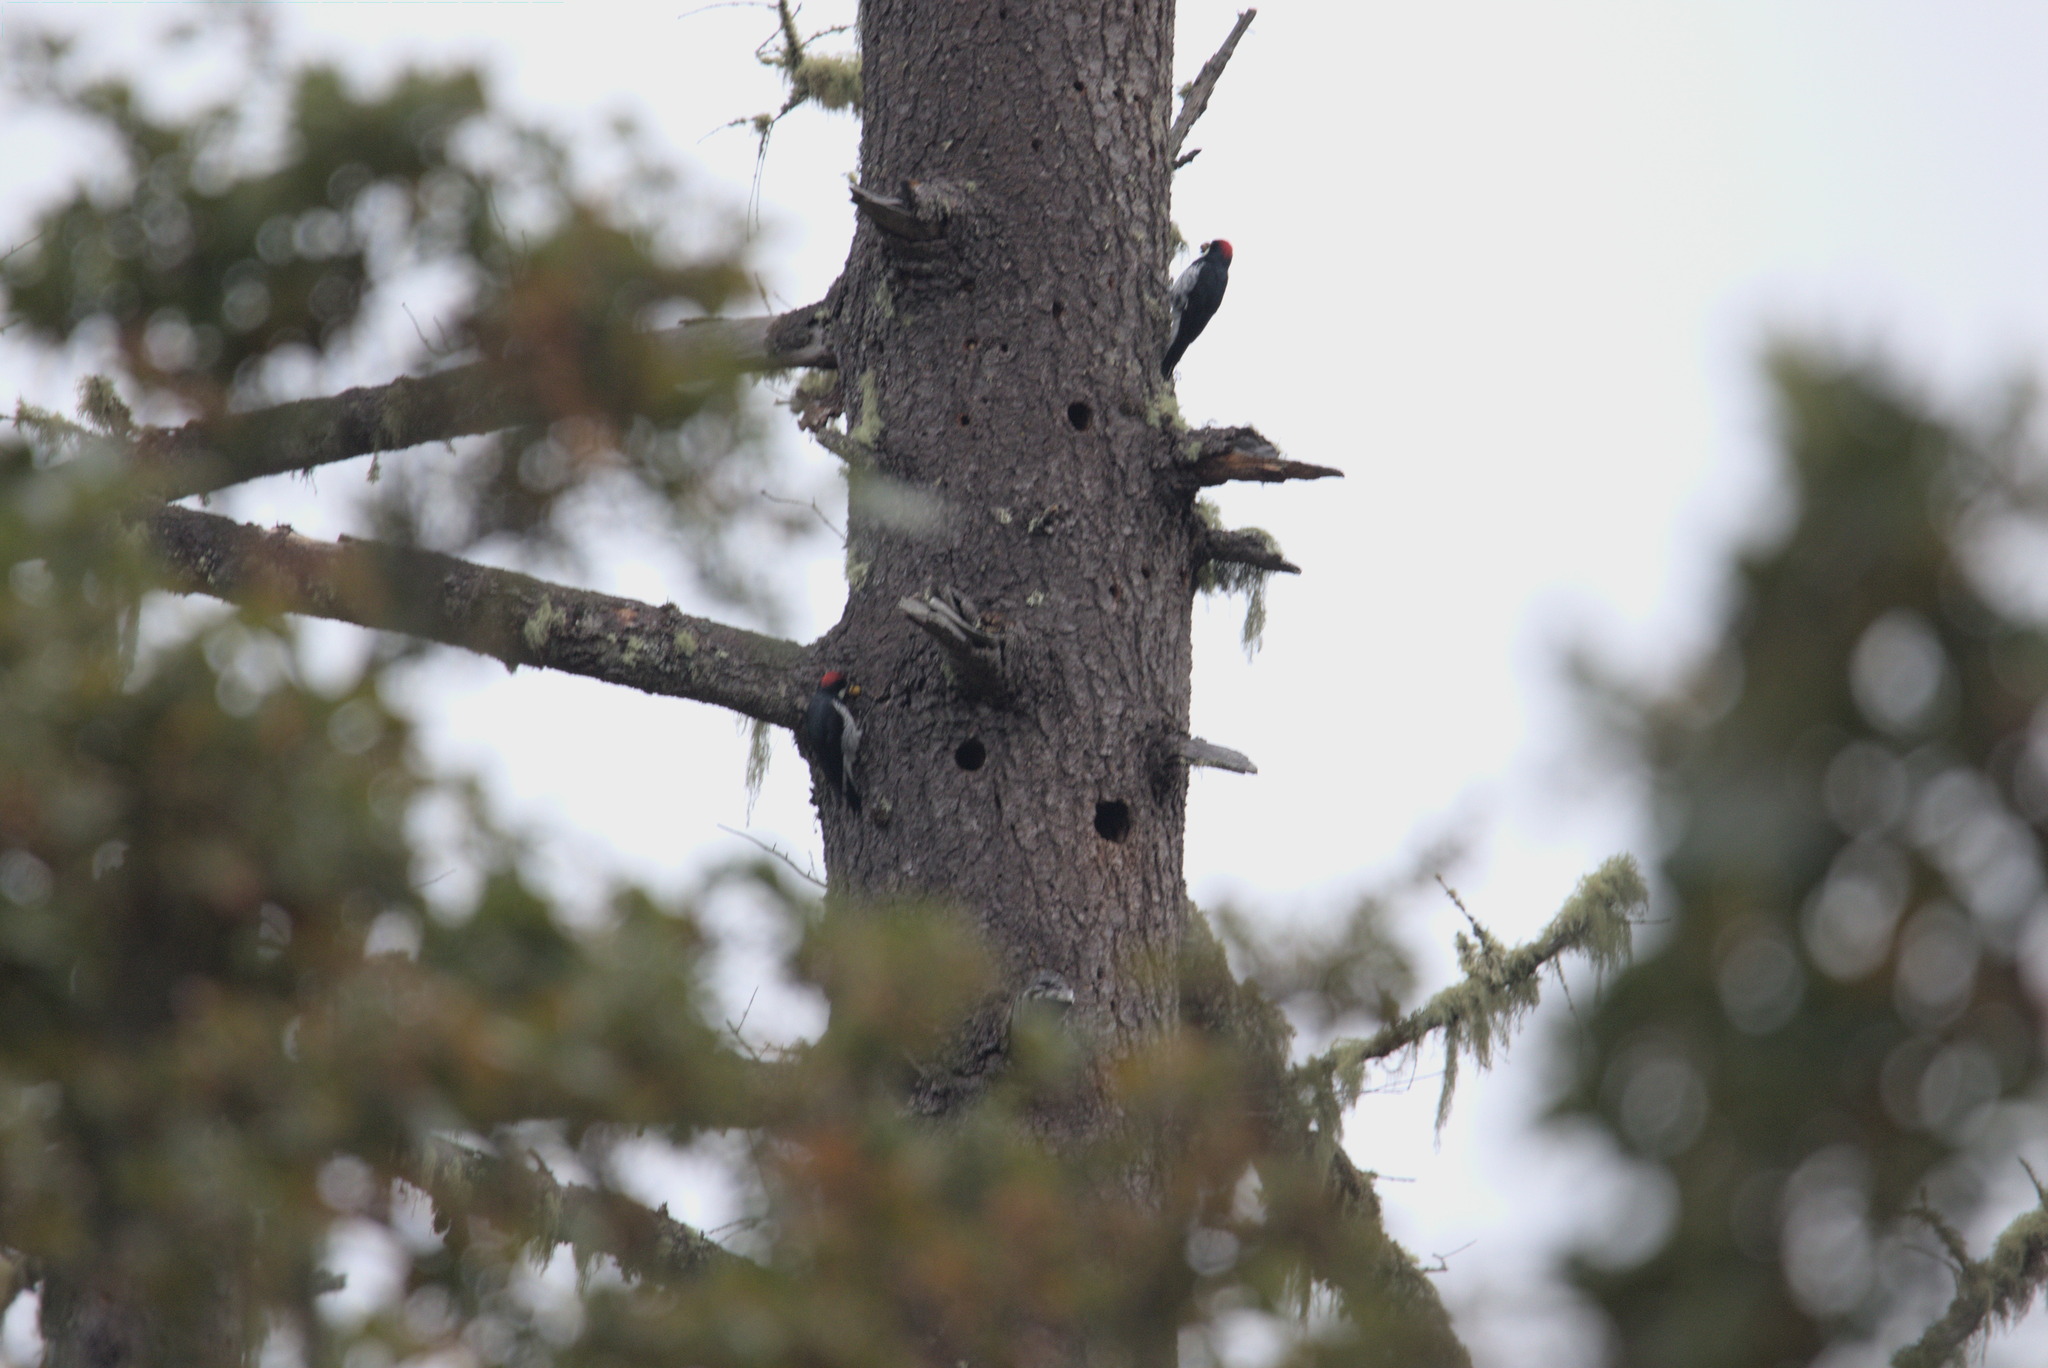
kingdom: Animalia
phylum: Chordata
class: Aves
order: Passeriformes
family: Bombycillidae
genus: Bombycilla
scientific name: Bombycilla cedrorum
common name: Cedar waxwing
